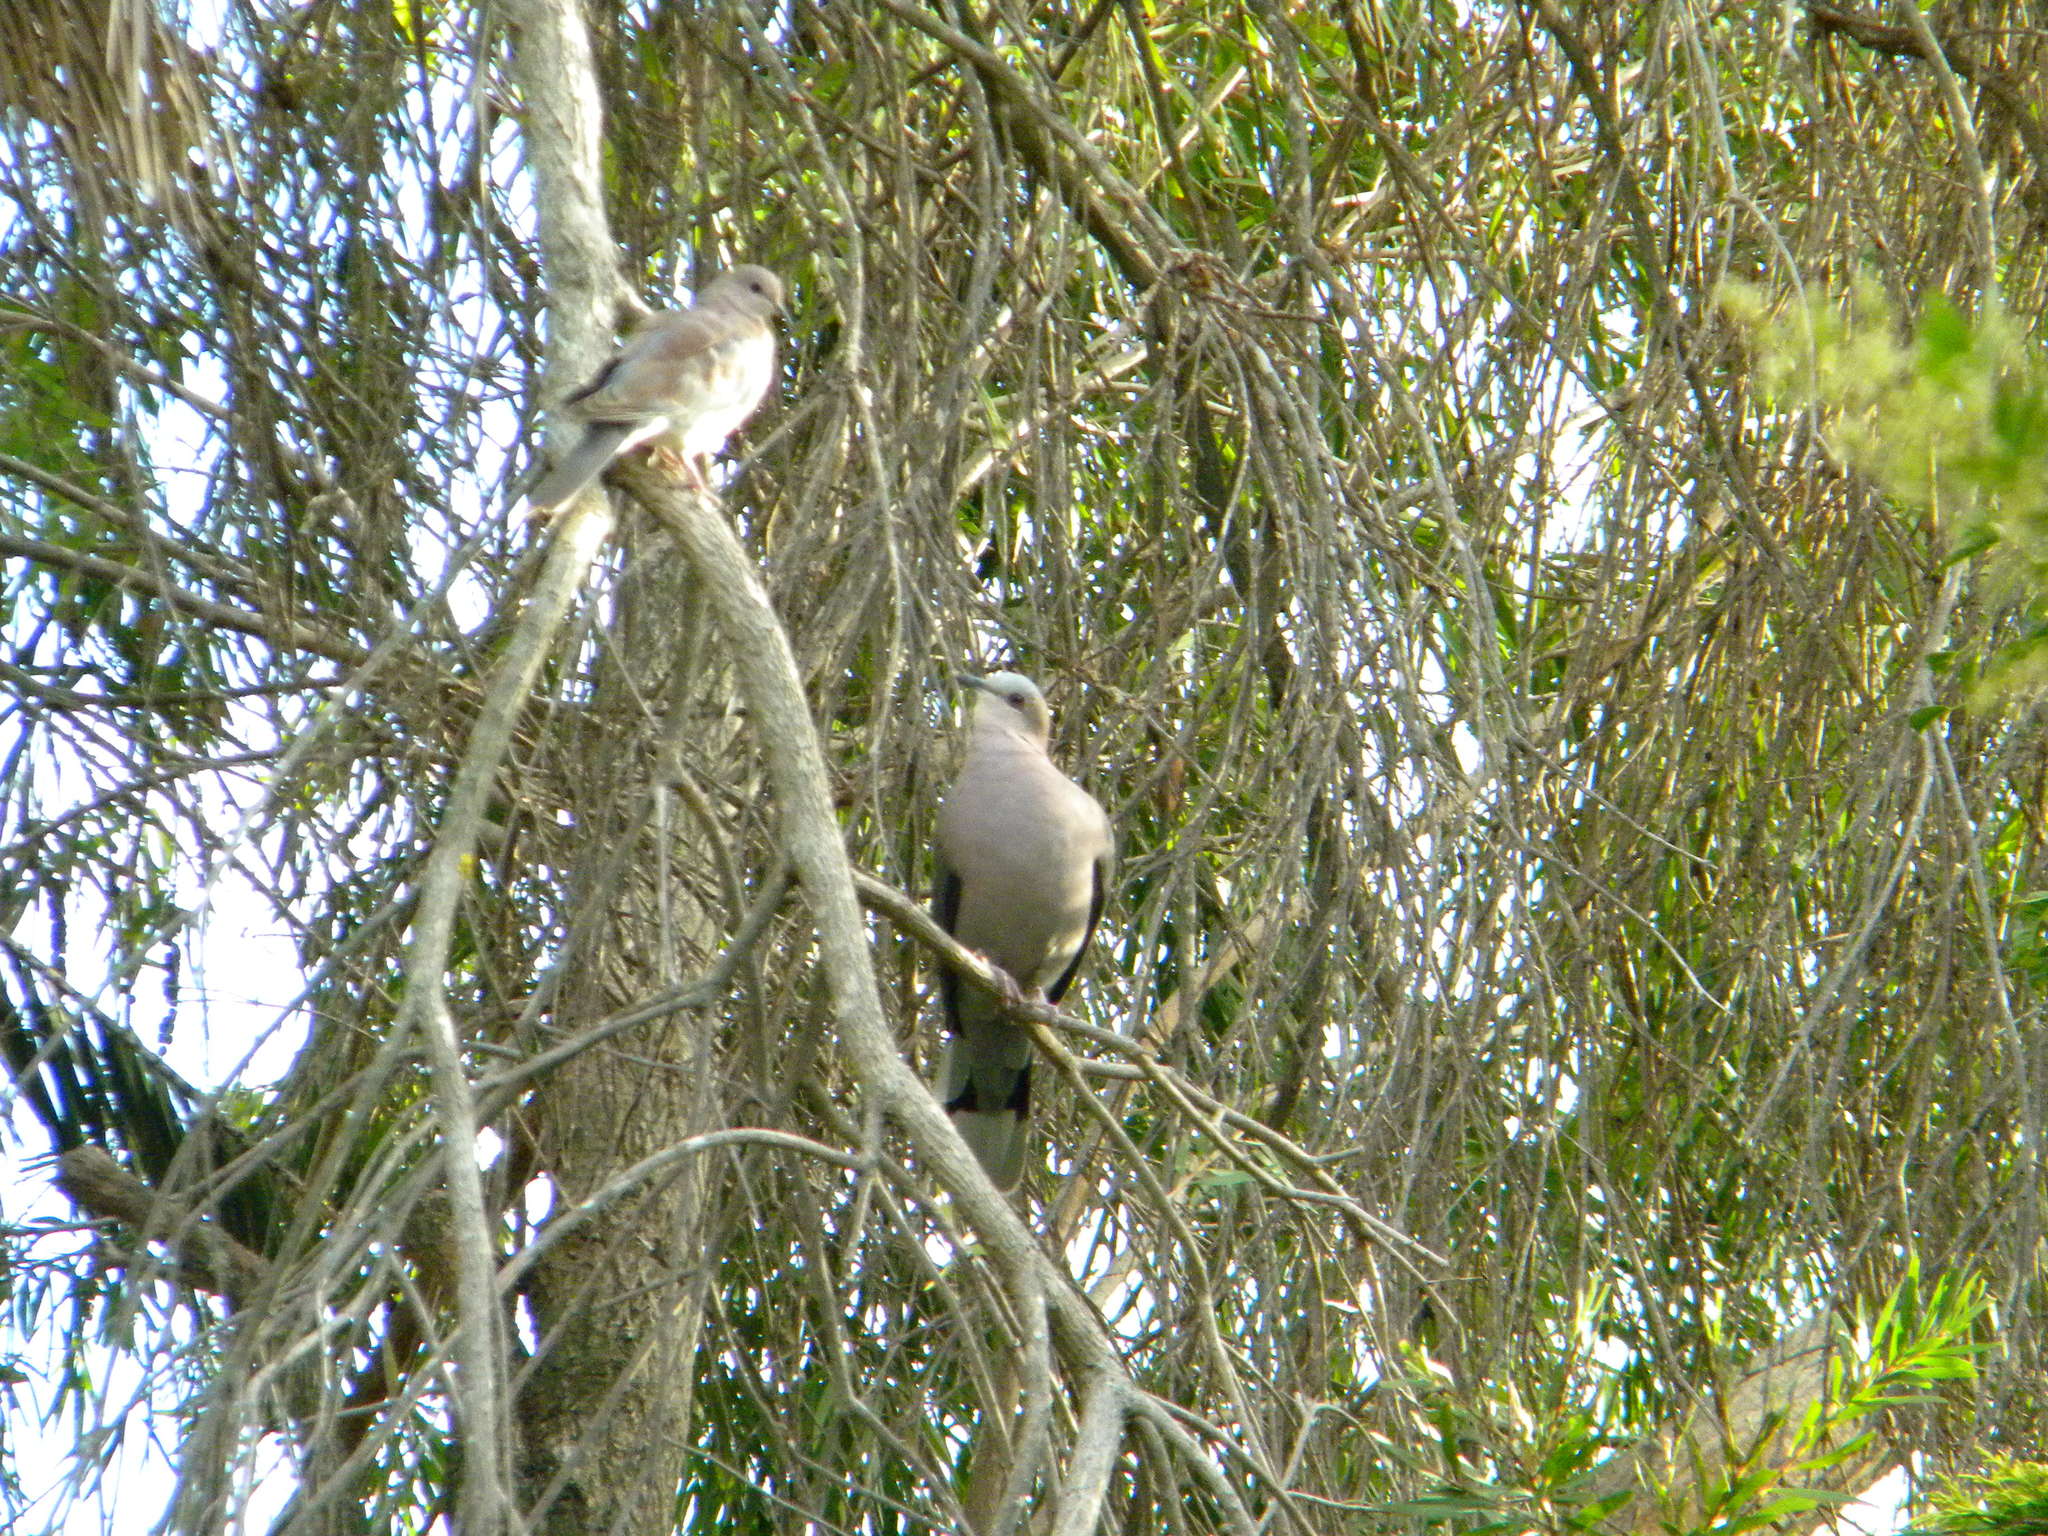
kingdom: Animalia
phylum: Chordata
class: Aves
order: Columbiformes
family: Columbidae
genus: Streptopelia
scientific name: Streptopelia semitorquata
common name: Red-eyed dove
